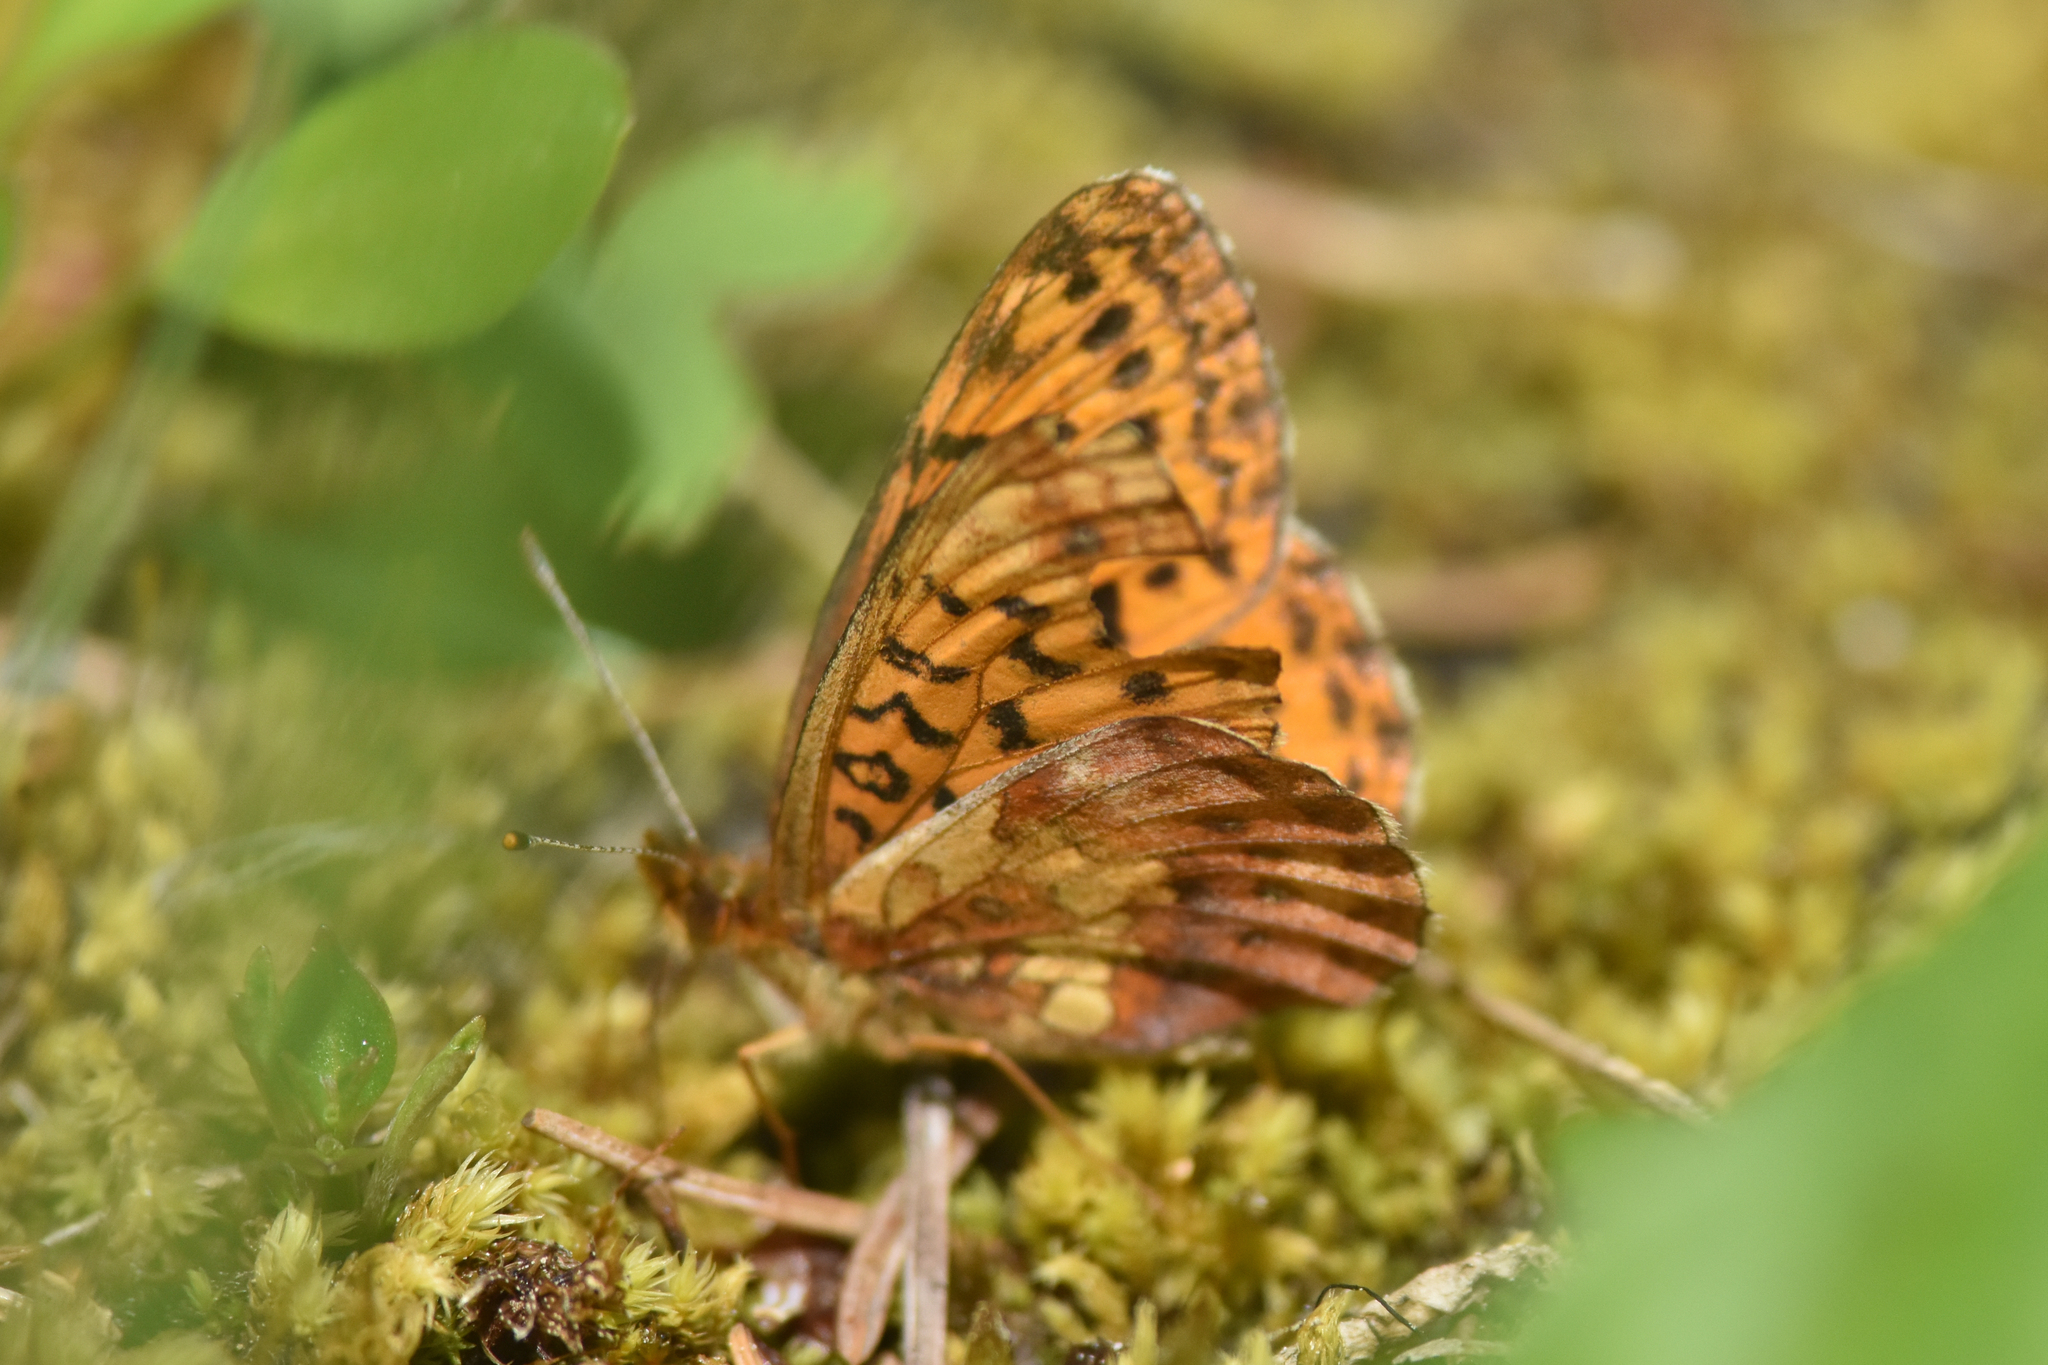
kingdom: Animalia
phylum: Arthropoda
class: Insecta
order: Lepidoptera
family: Nymphalidae
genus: Boloria
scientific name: Boloria epithore
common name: Pacific fritillary
